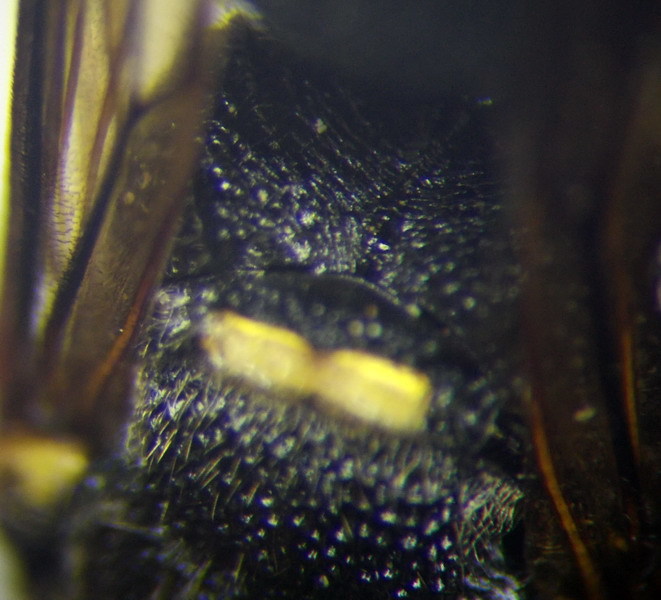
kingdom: Animalia
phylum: Arthropoda
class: Insecta
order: Hymenoptera
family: Eumenidae
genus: Euodynerus
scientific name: Euodynerus posticus
